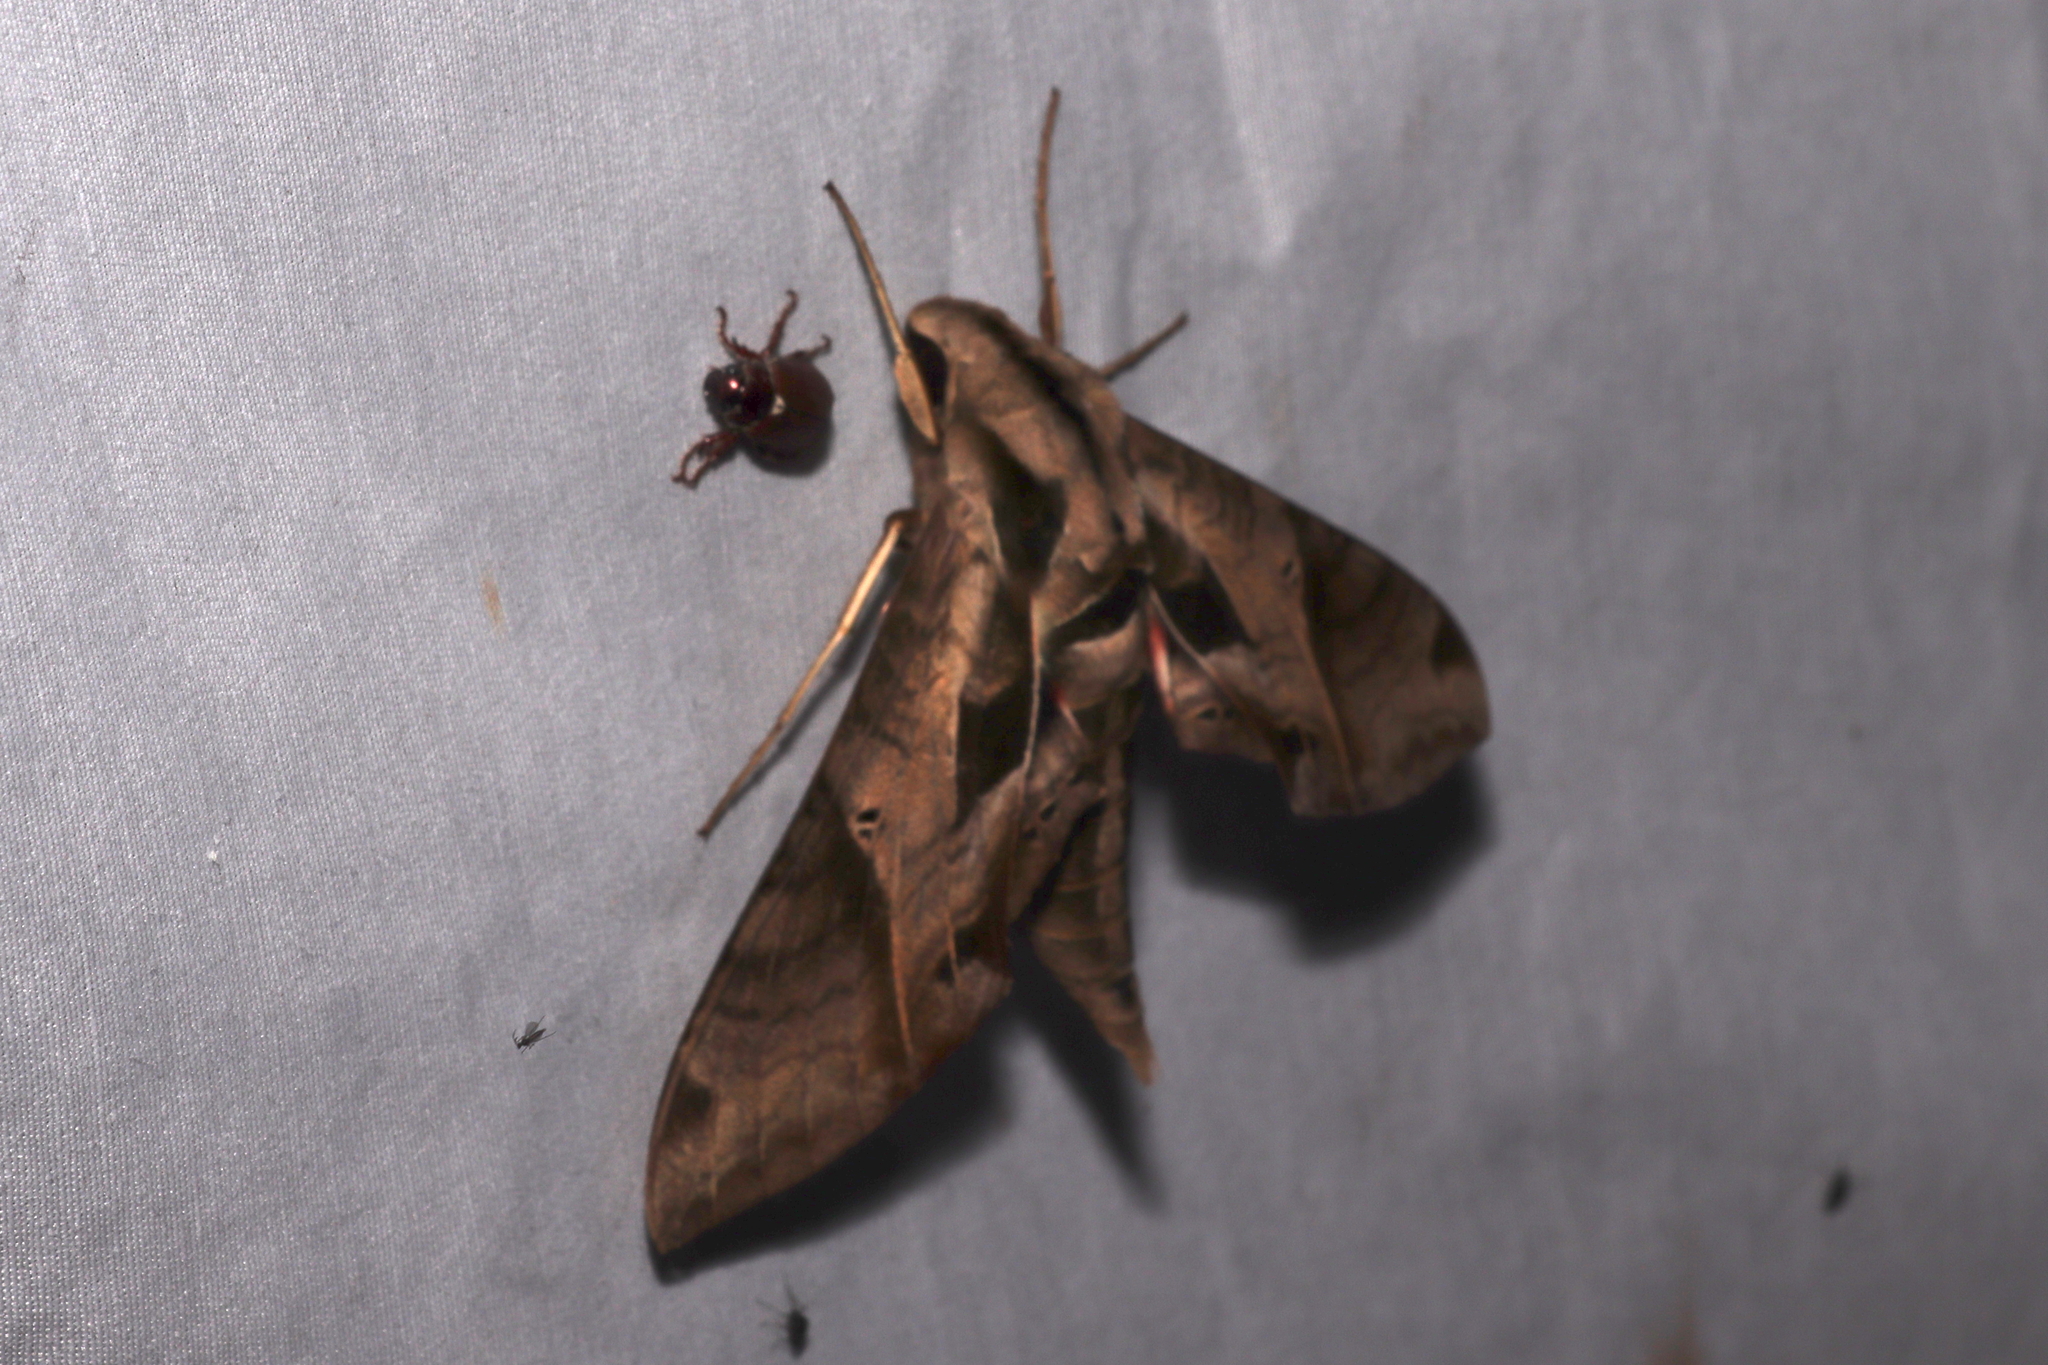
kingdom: Animalia
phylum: Arthropoda
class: Insecta
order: Lepidoptera
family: Sphingidae
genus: Eumorpha
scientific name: Eumorpha analis
